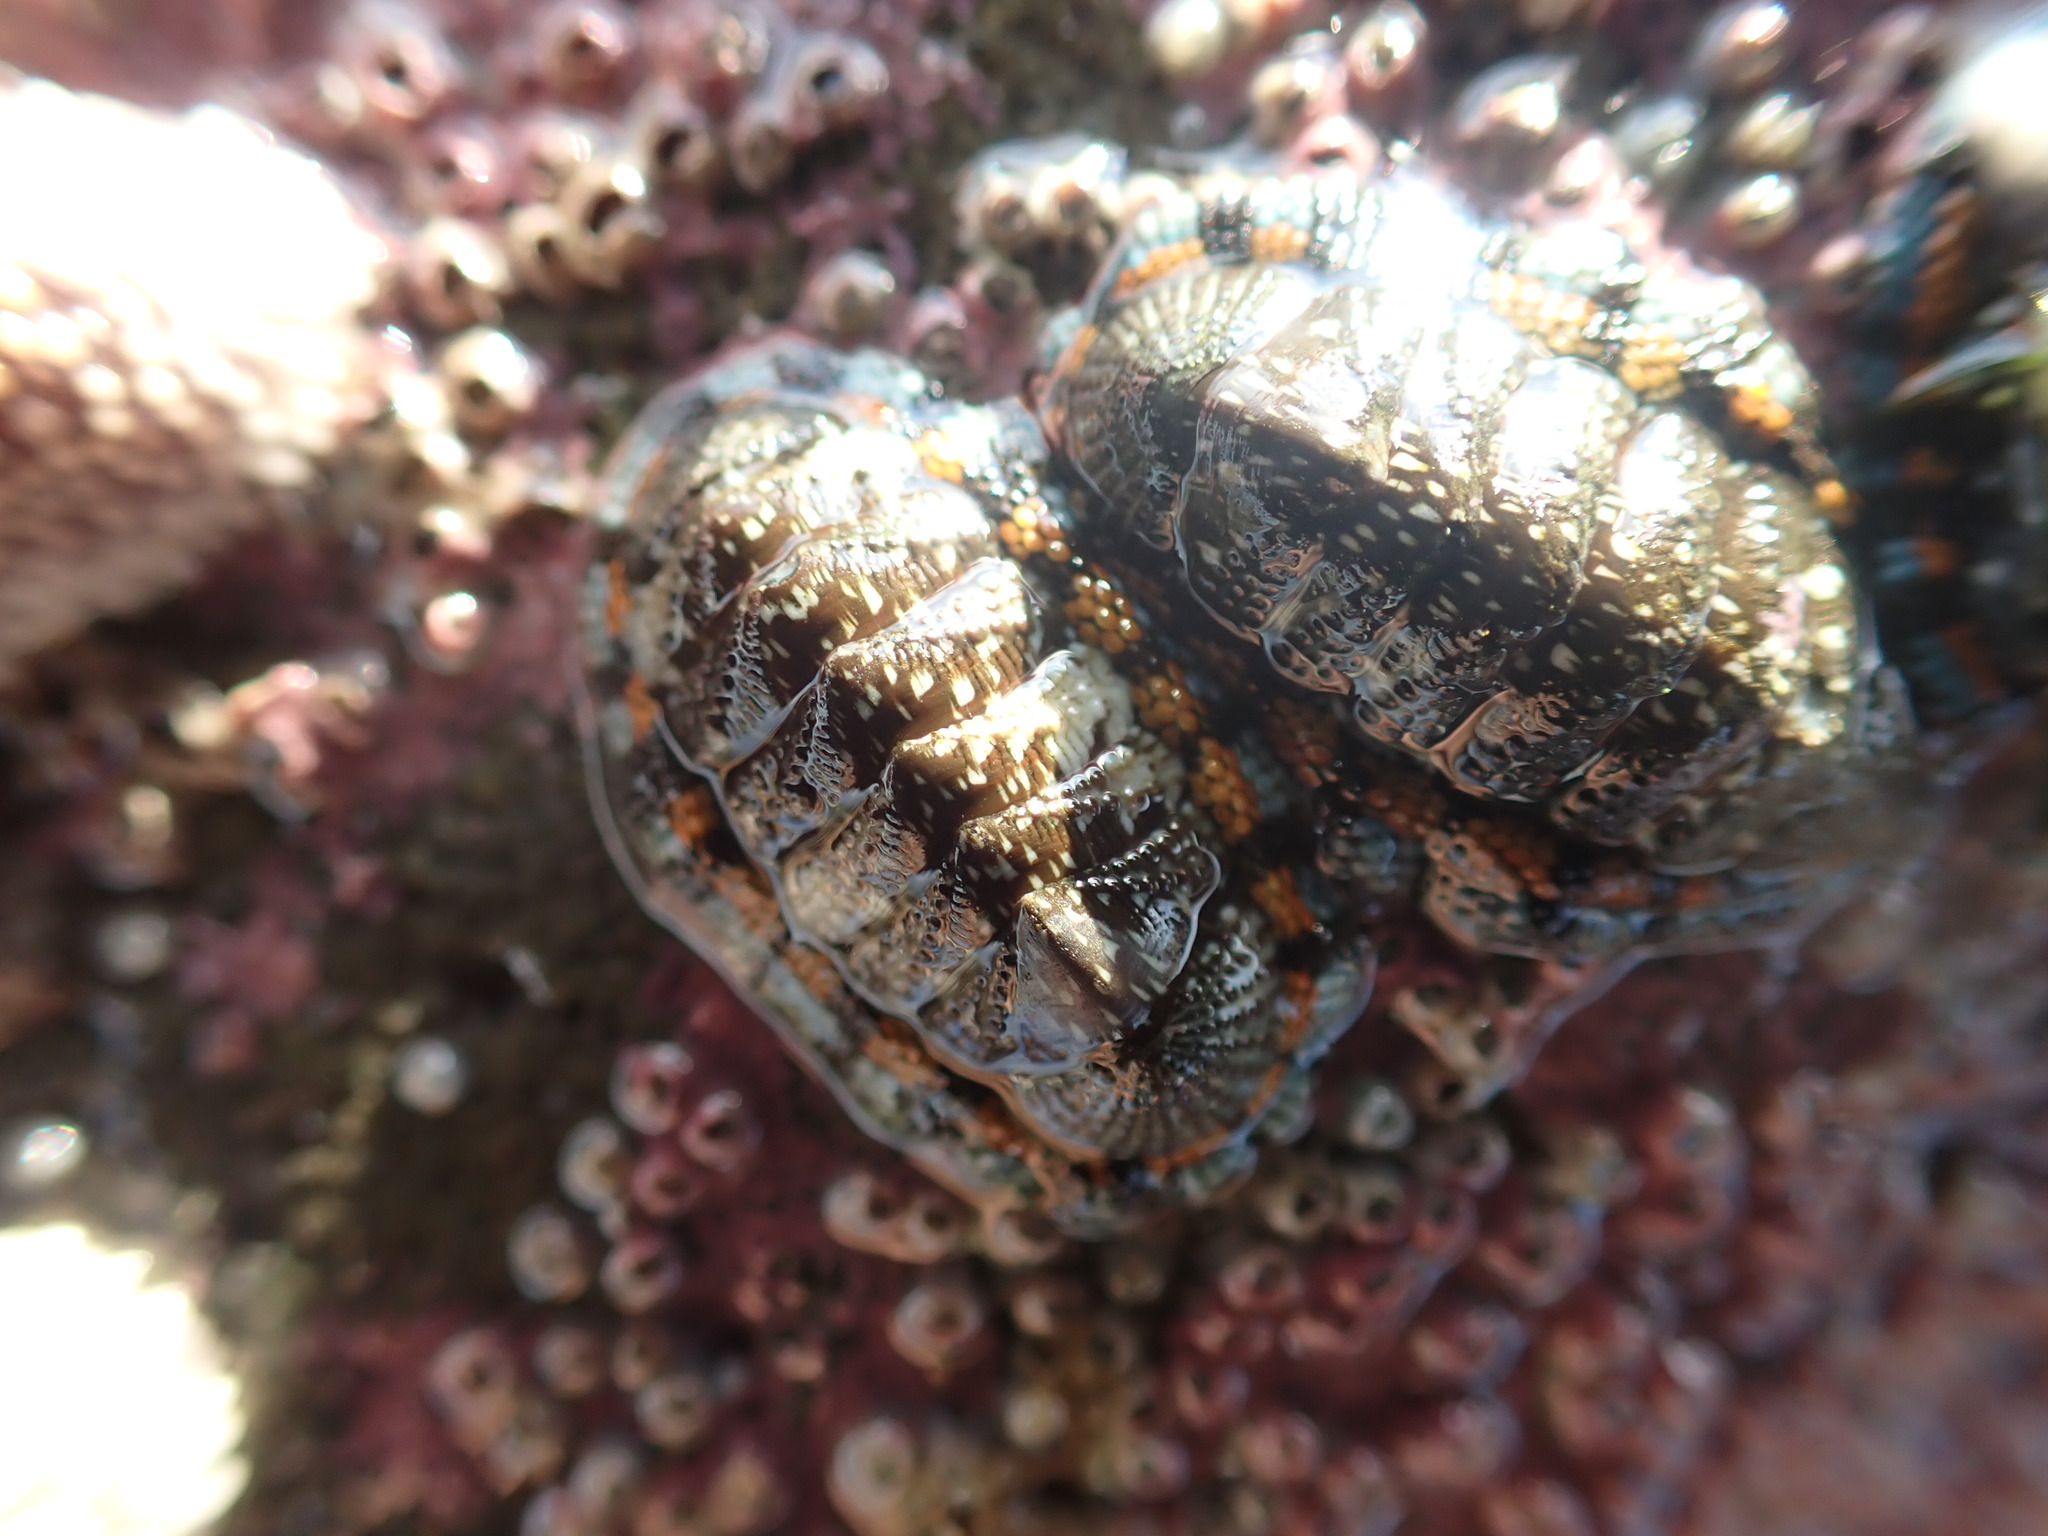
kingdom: Animalia
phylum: Mollusca
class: Polyplacophora
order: Chitonida
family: Chitonidae
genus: Sypharochiton
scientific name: Sypharochiton sinclairi
